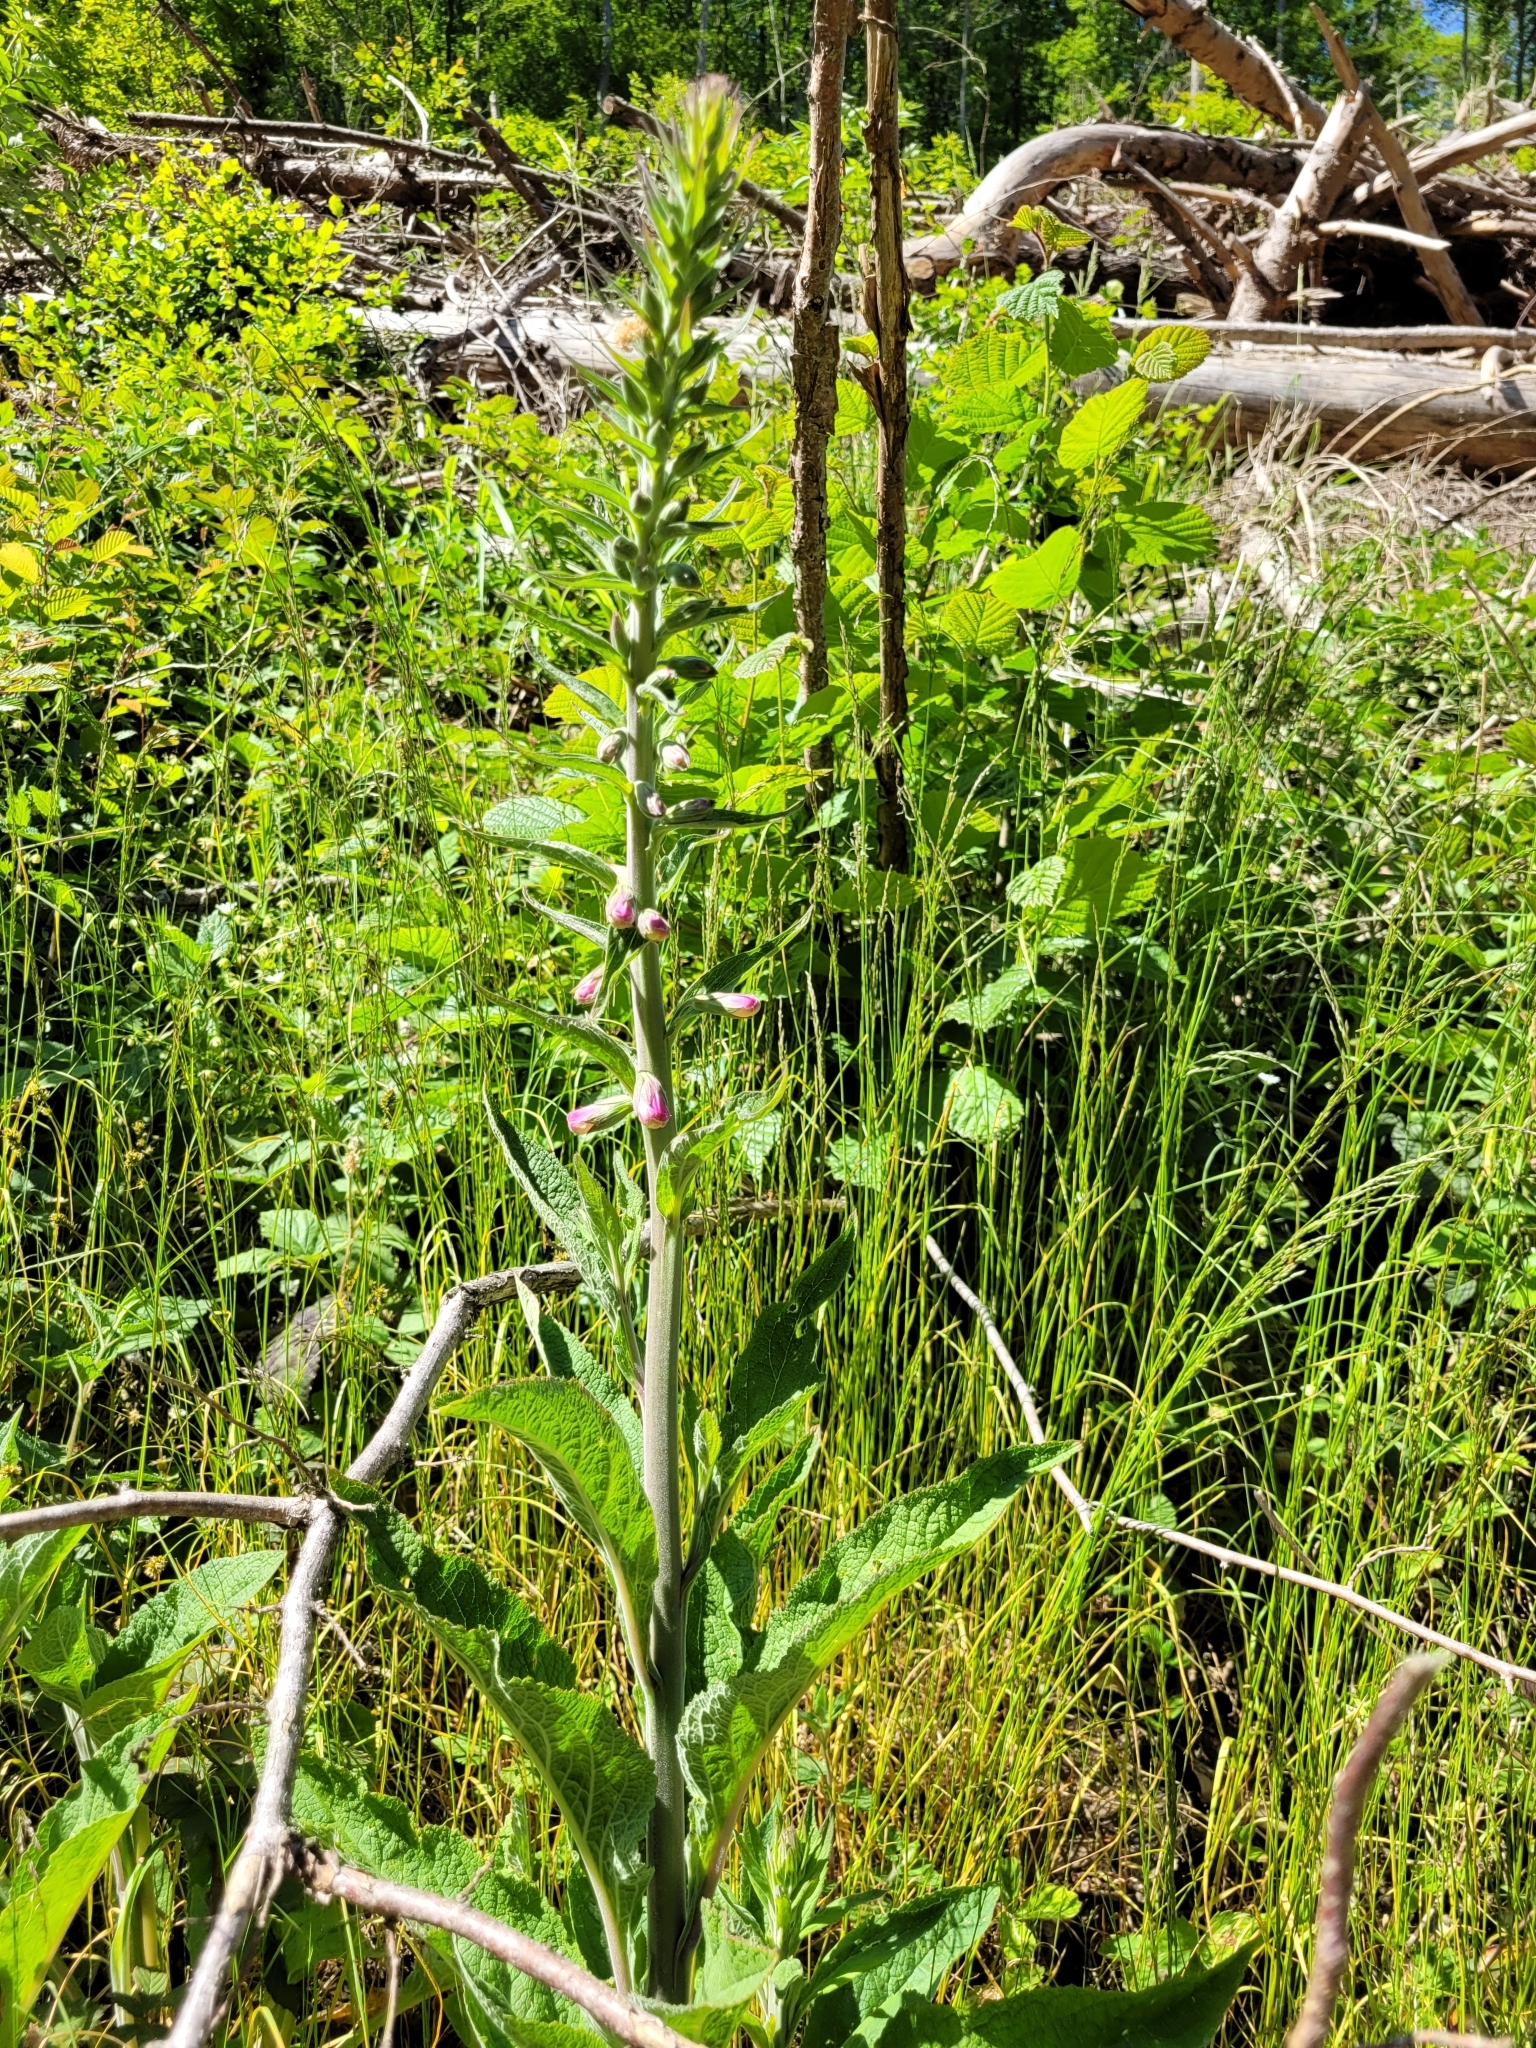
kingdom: Plantae
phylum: Tracheophyta
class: Magnoliopsida
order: Lamiales
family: Plantaginaceae
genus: Digitalis
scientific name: Digitalis purpurea
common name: Foxglove
